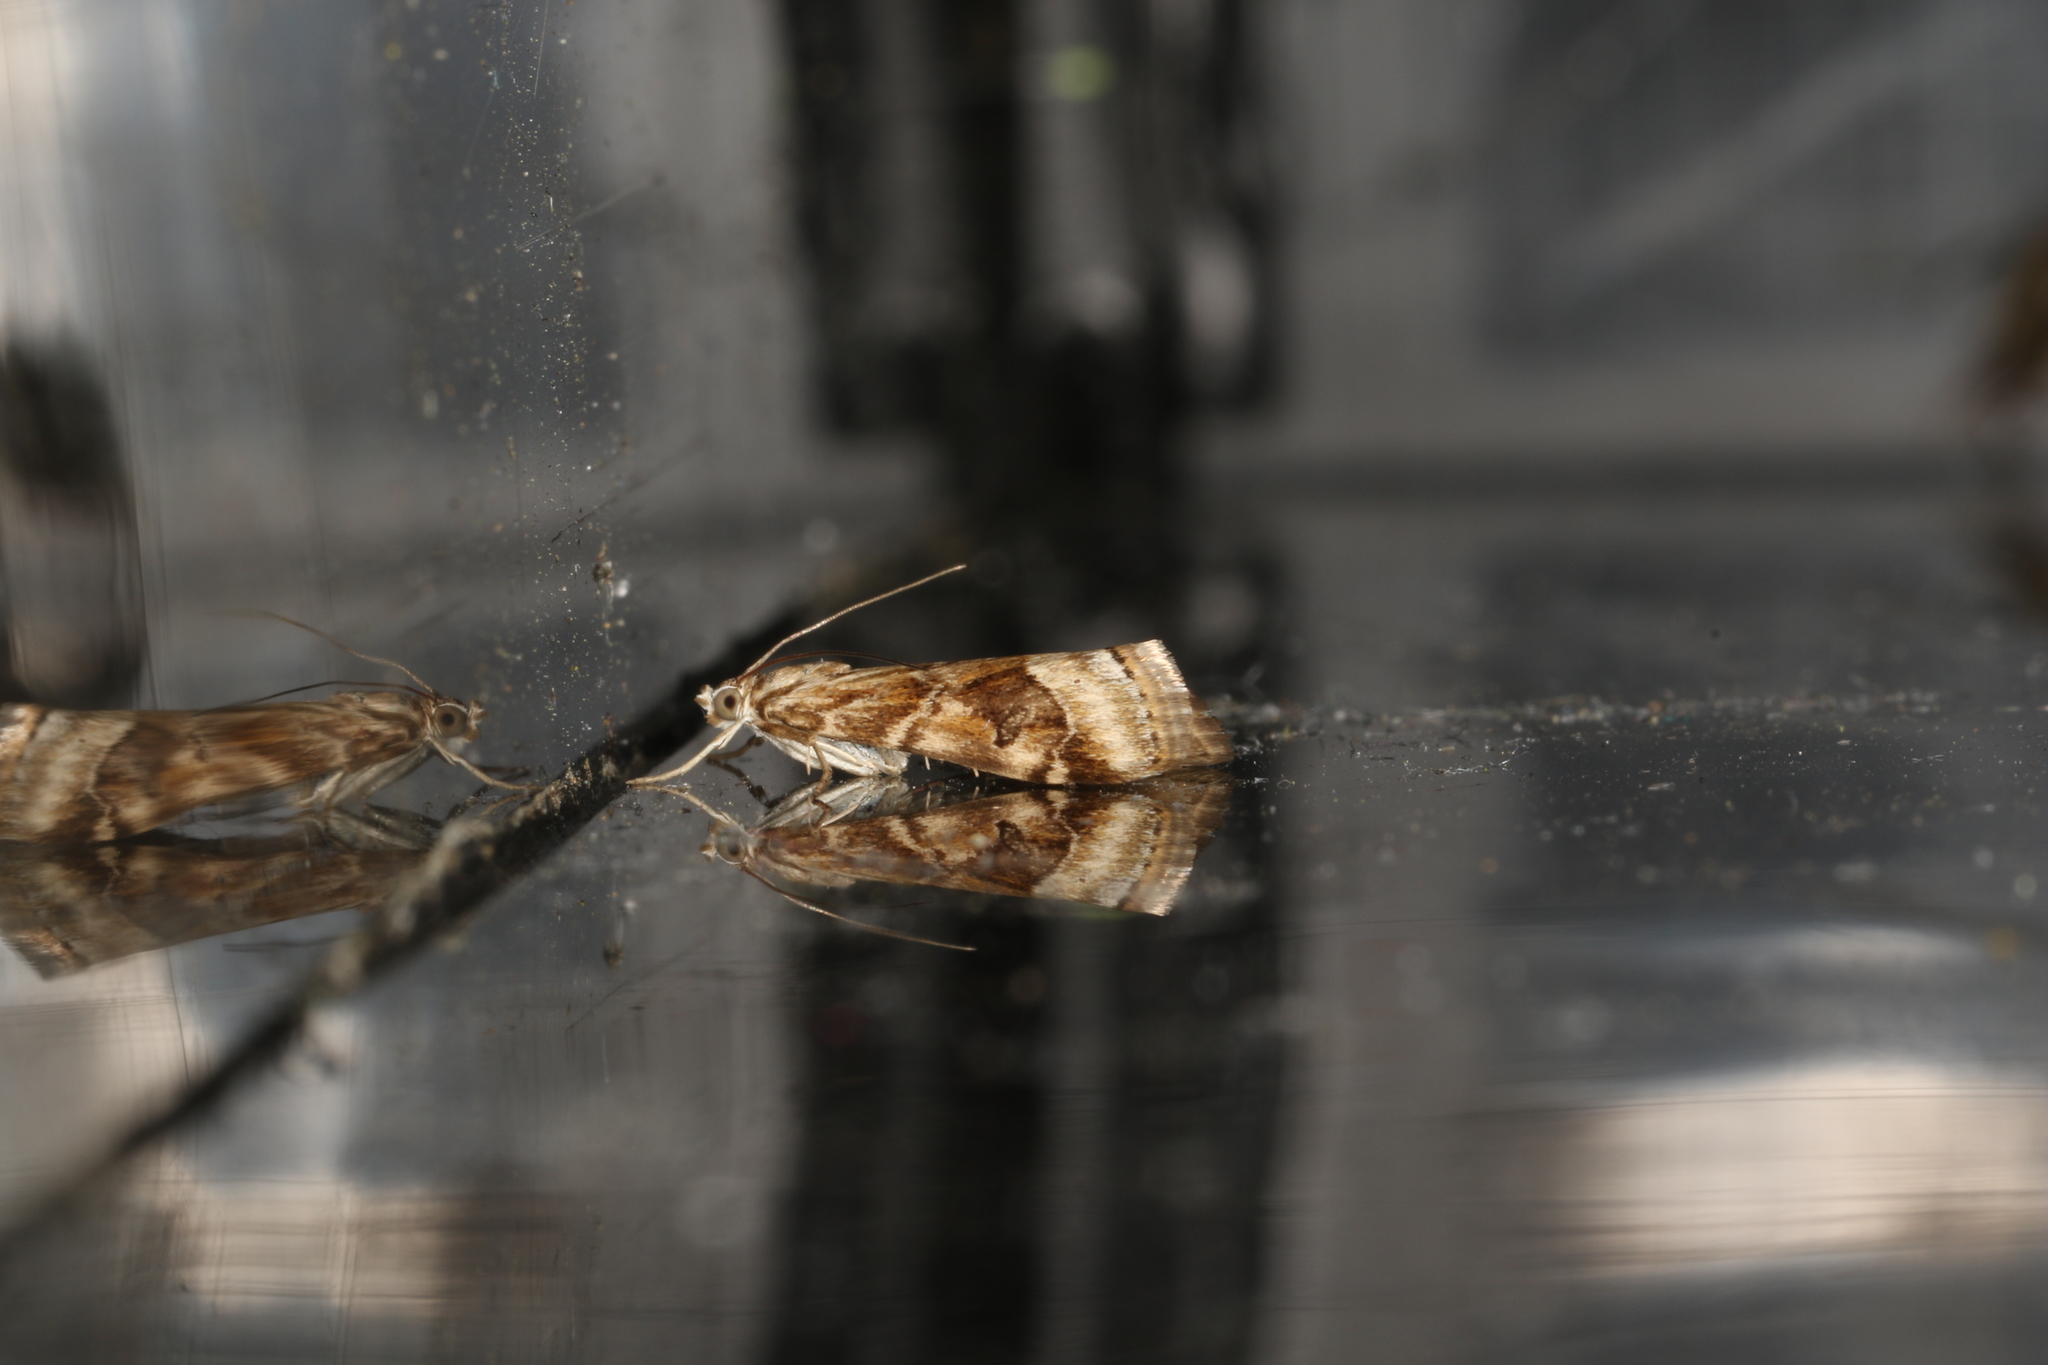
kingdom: Animalia
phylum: Arthropoda
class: Insecta
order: Lepidoptera
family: Crambidae
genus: Hellula
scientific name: Hellula hydralis
